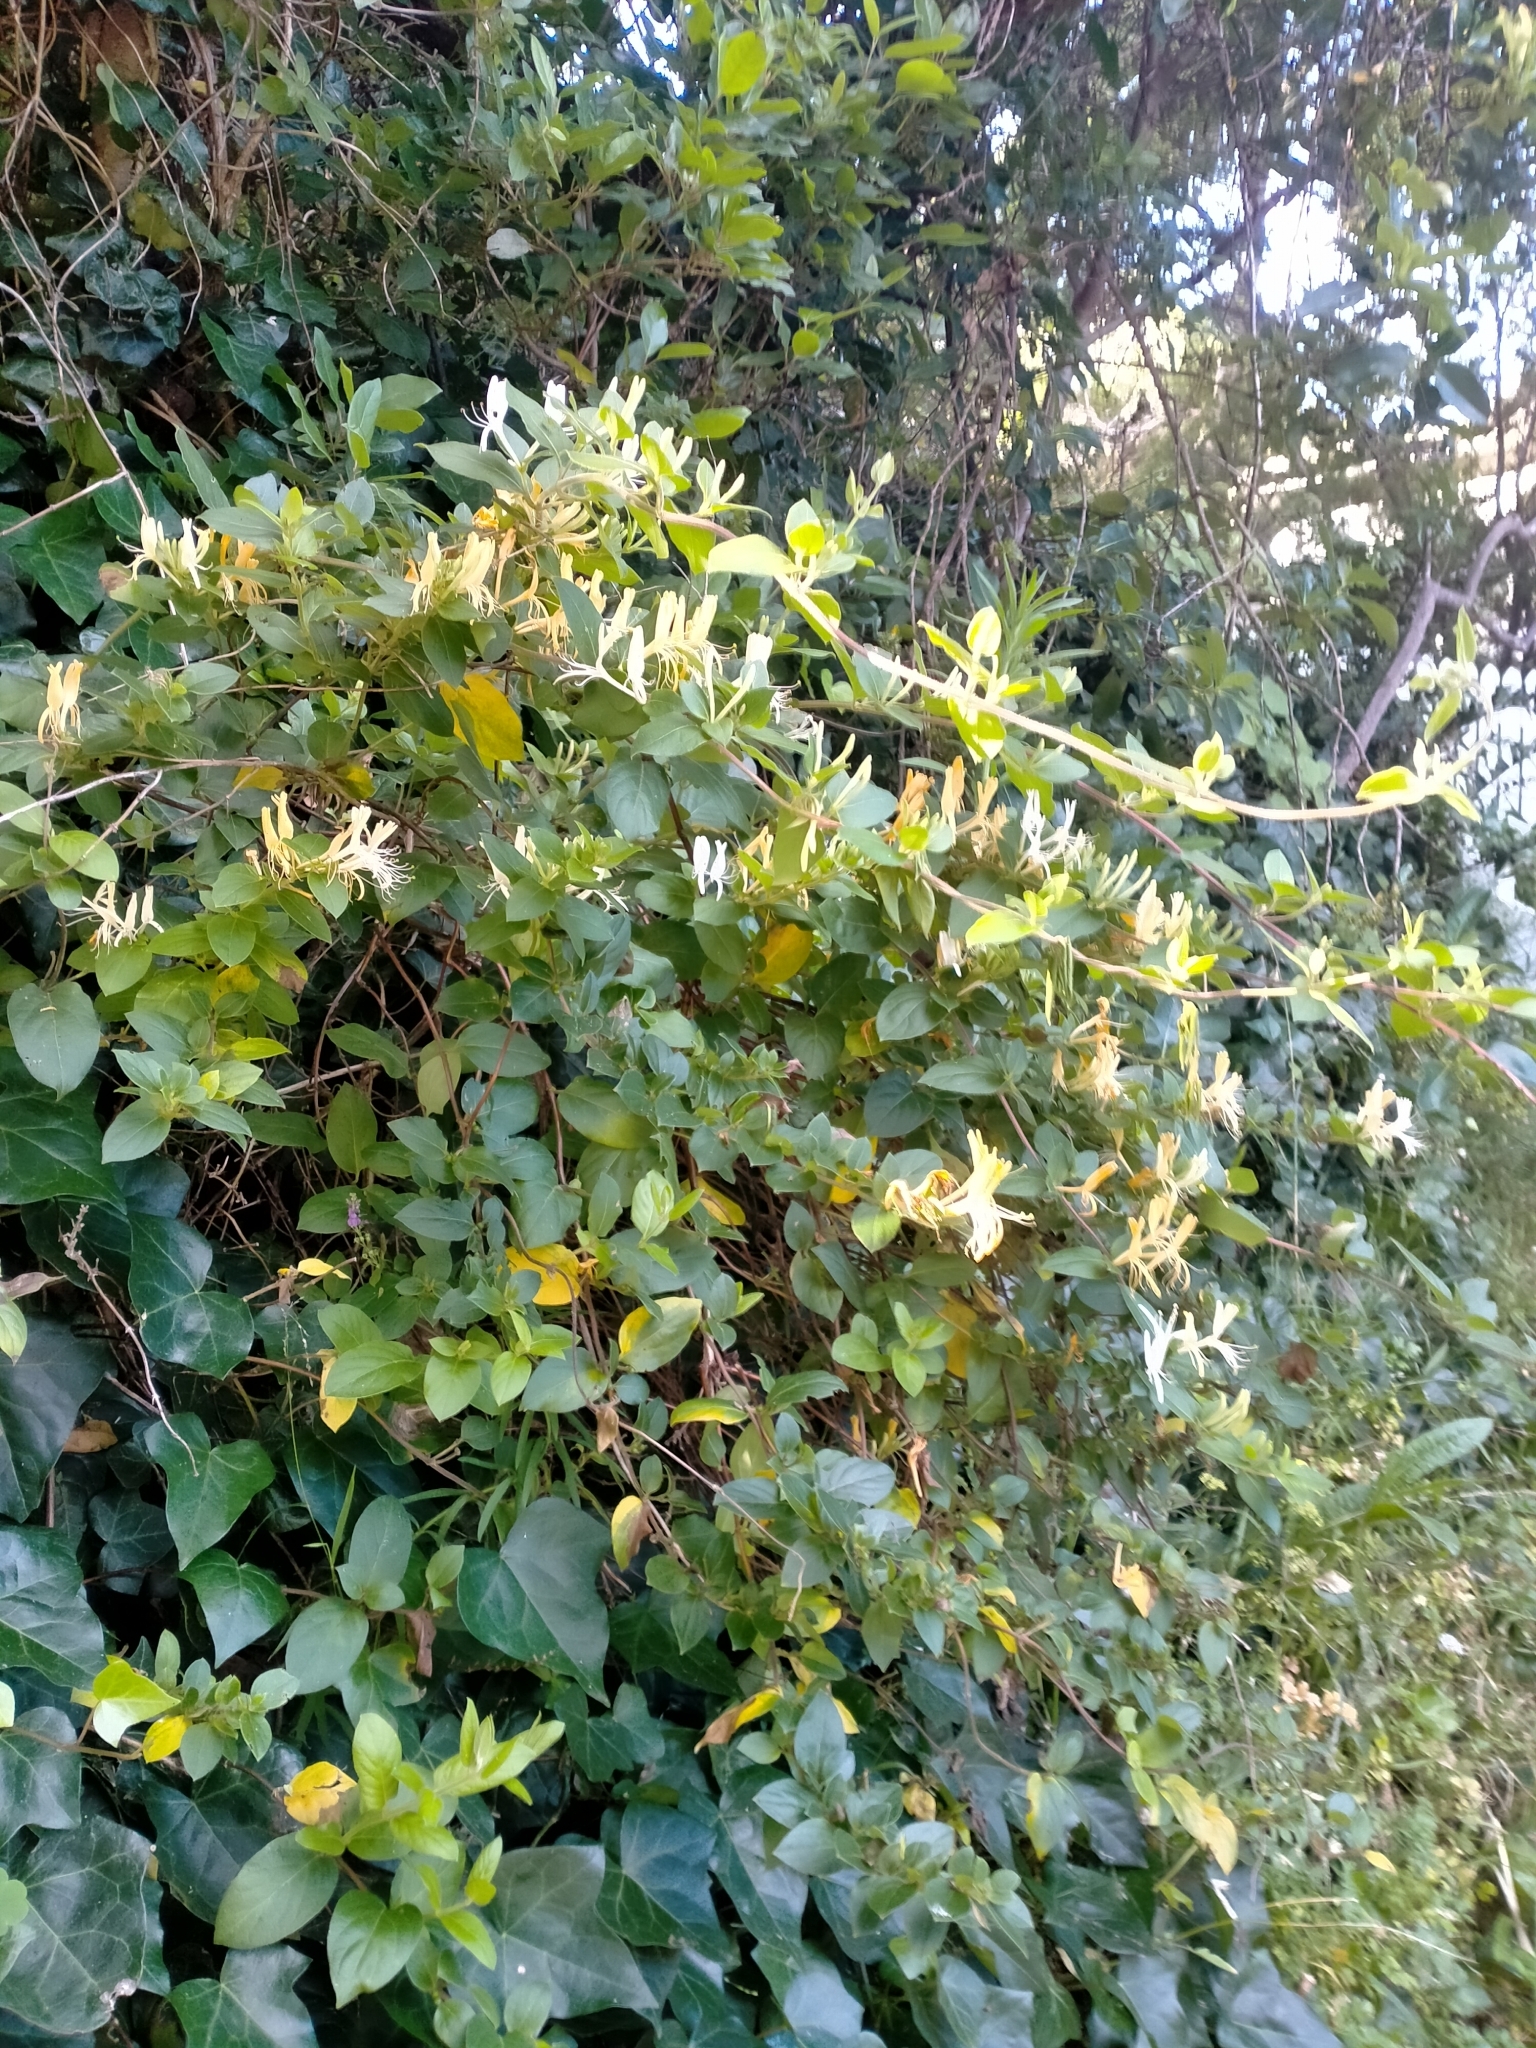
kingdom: Plantae
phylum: Tracheophyta
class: Magnoliopsida
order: Dipsacales
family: Caprifoliaceae
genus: Lonicera
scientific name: Lonicera japonica
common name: Japanese honeysuckle
